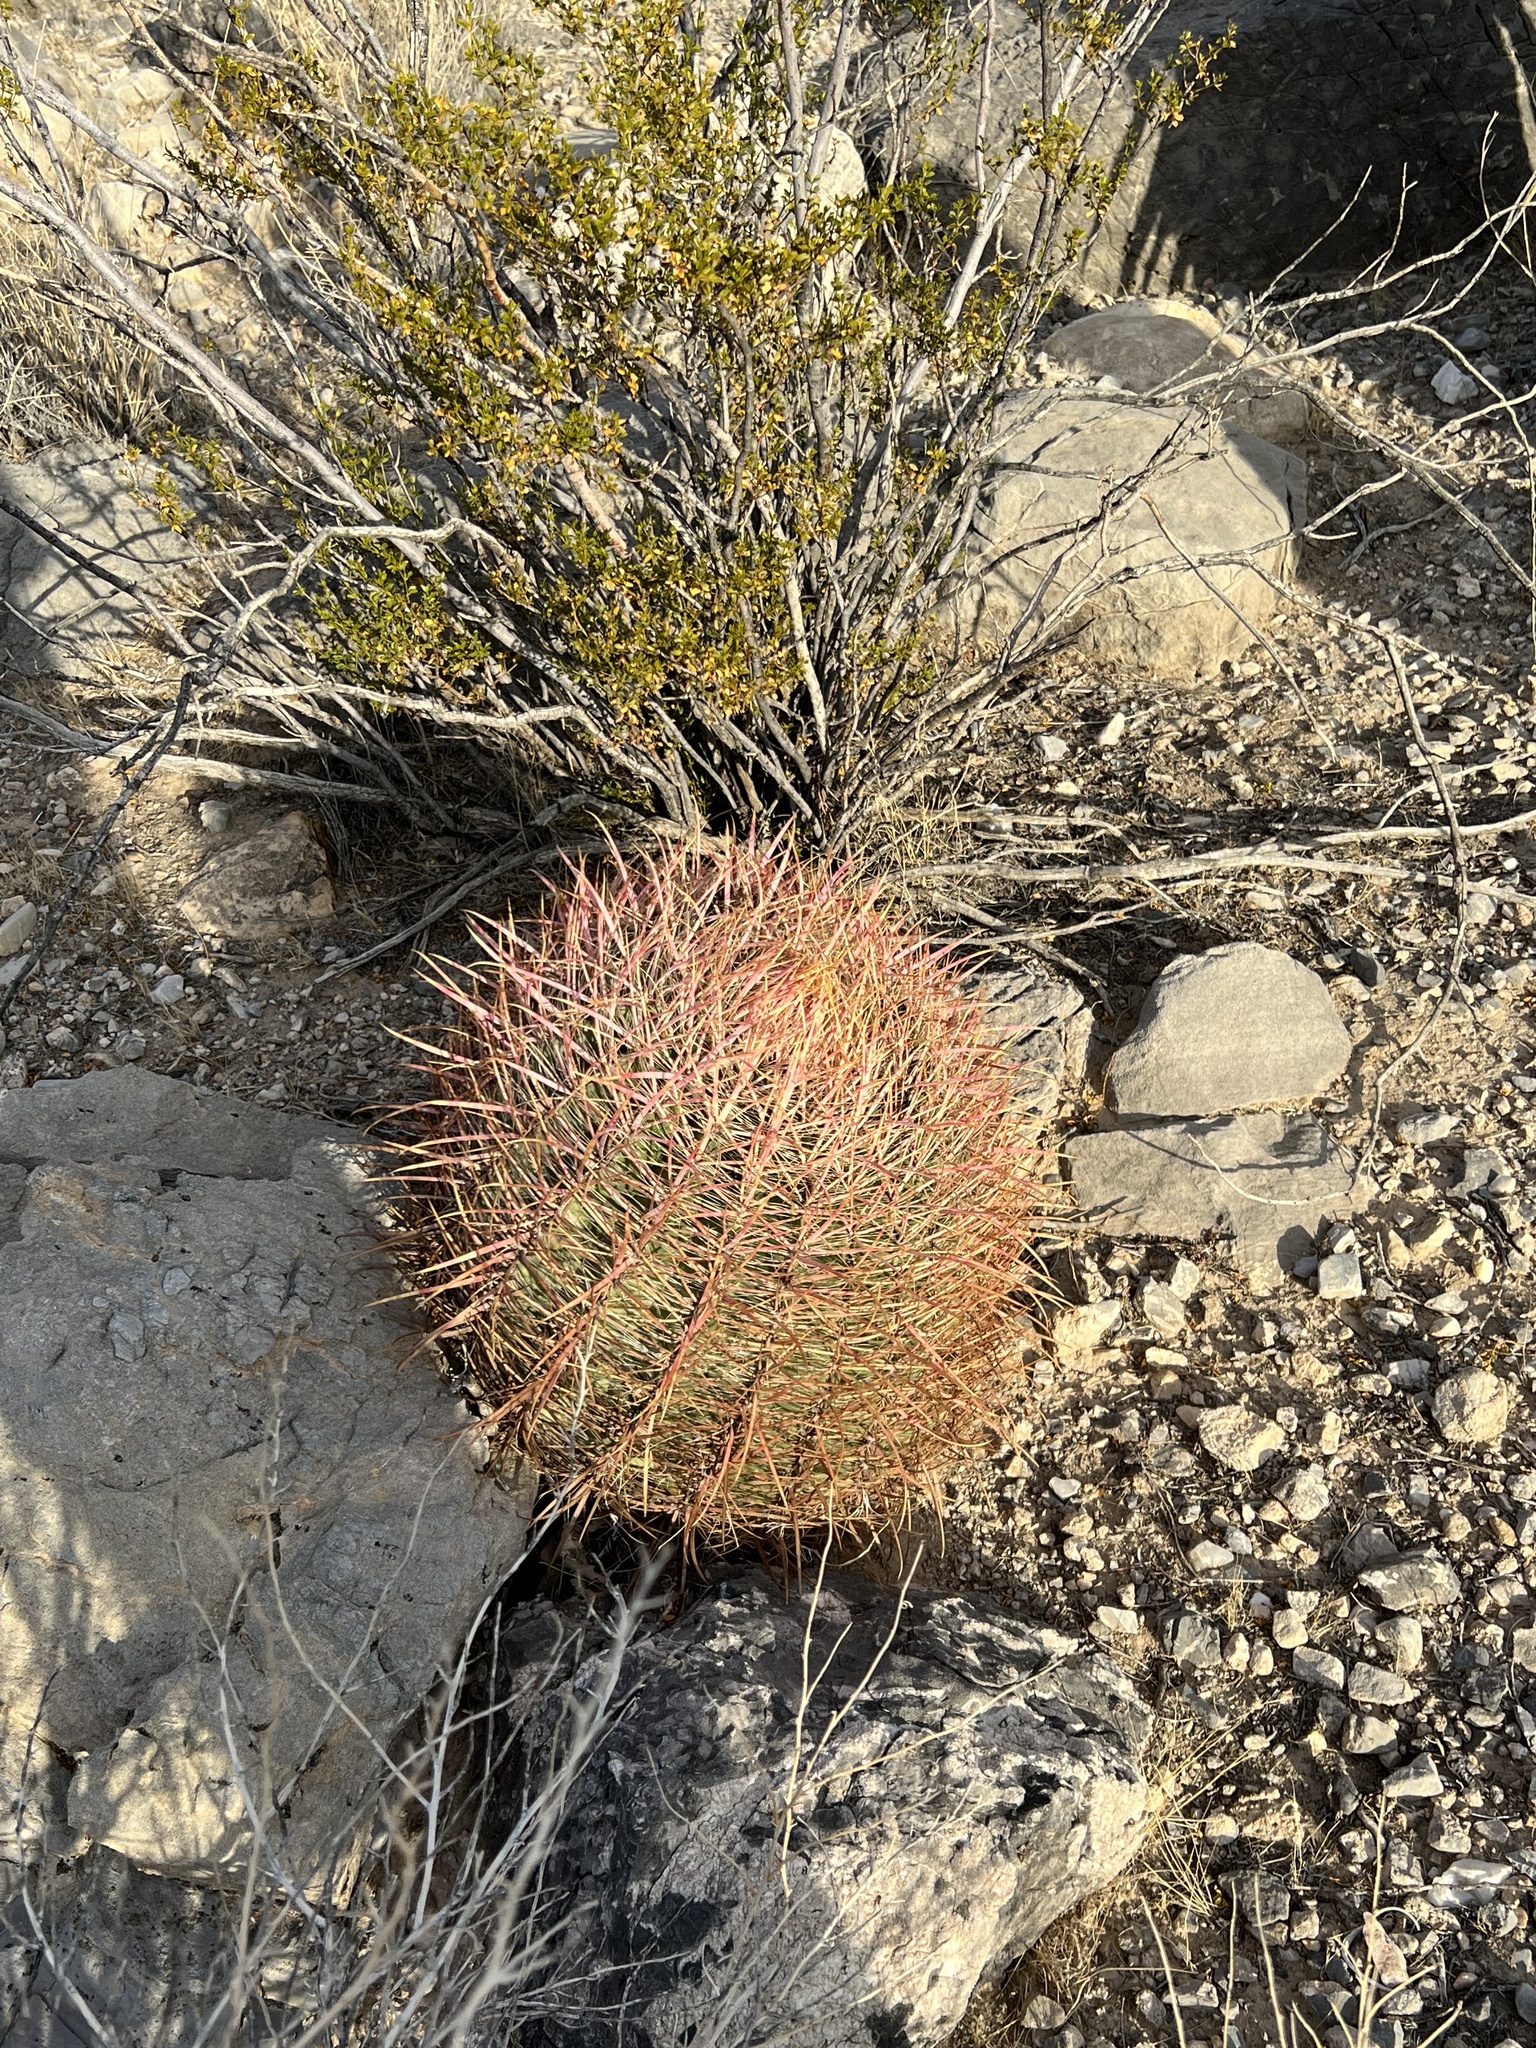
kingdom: Plantae
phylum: Tracheophyta
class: Magnoliopsida
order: Caryophyllales
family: Cactaceae
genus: Ferocactus
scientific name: Ferocactus cylindraceus
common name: California barrel cactus
